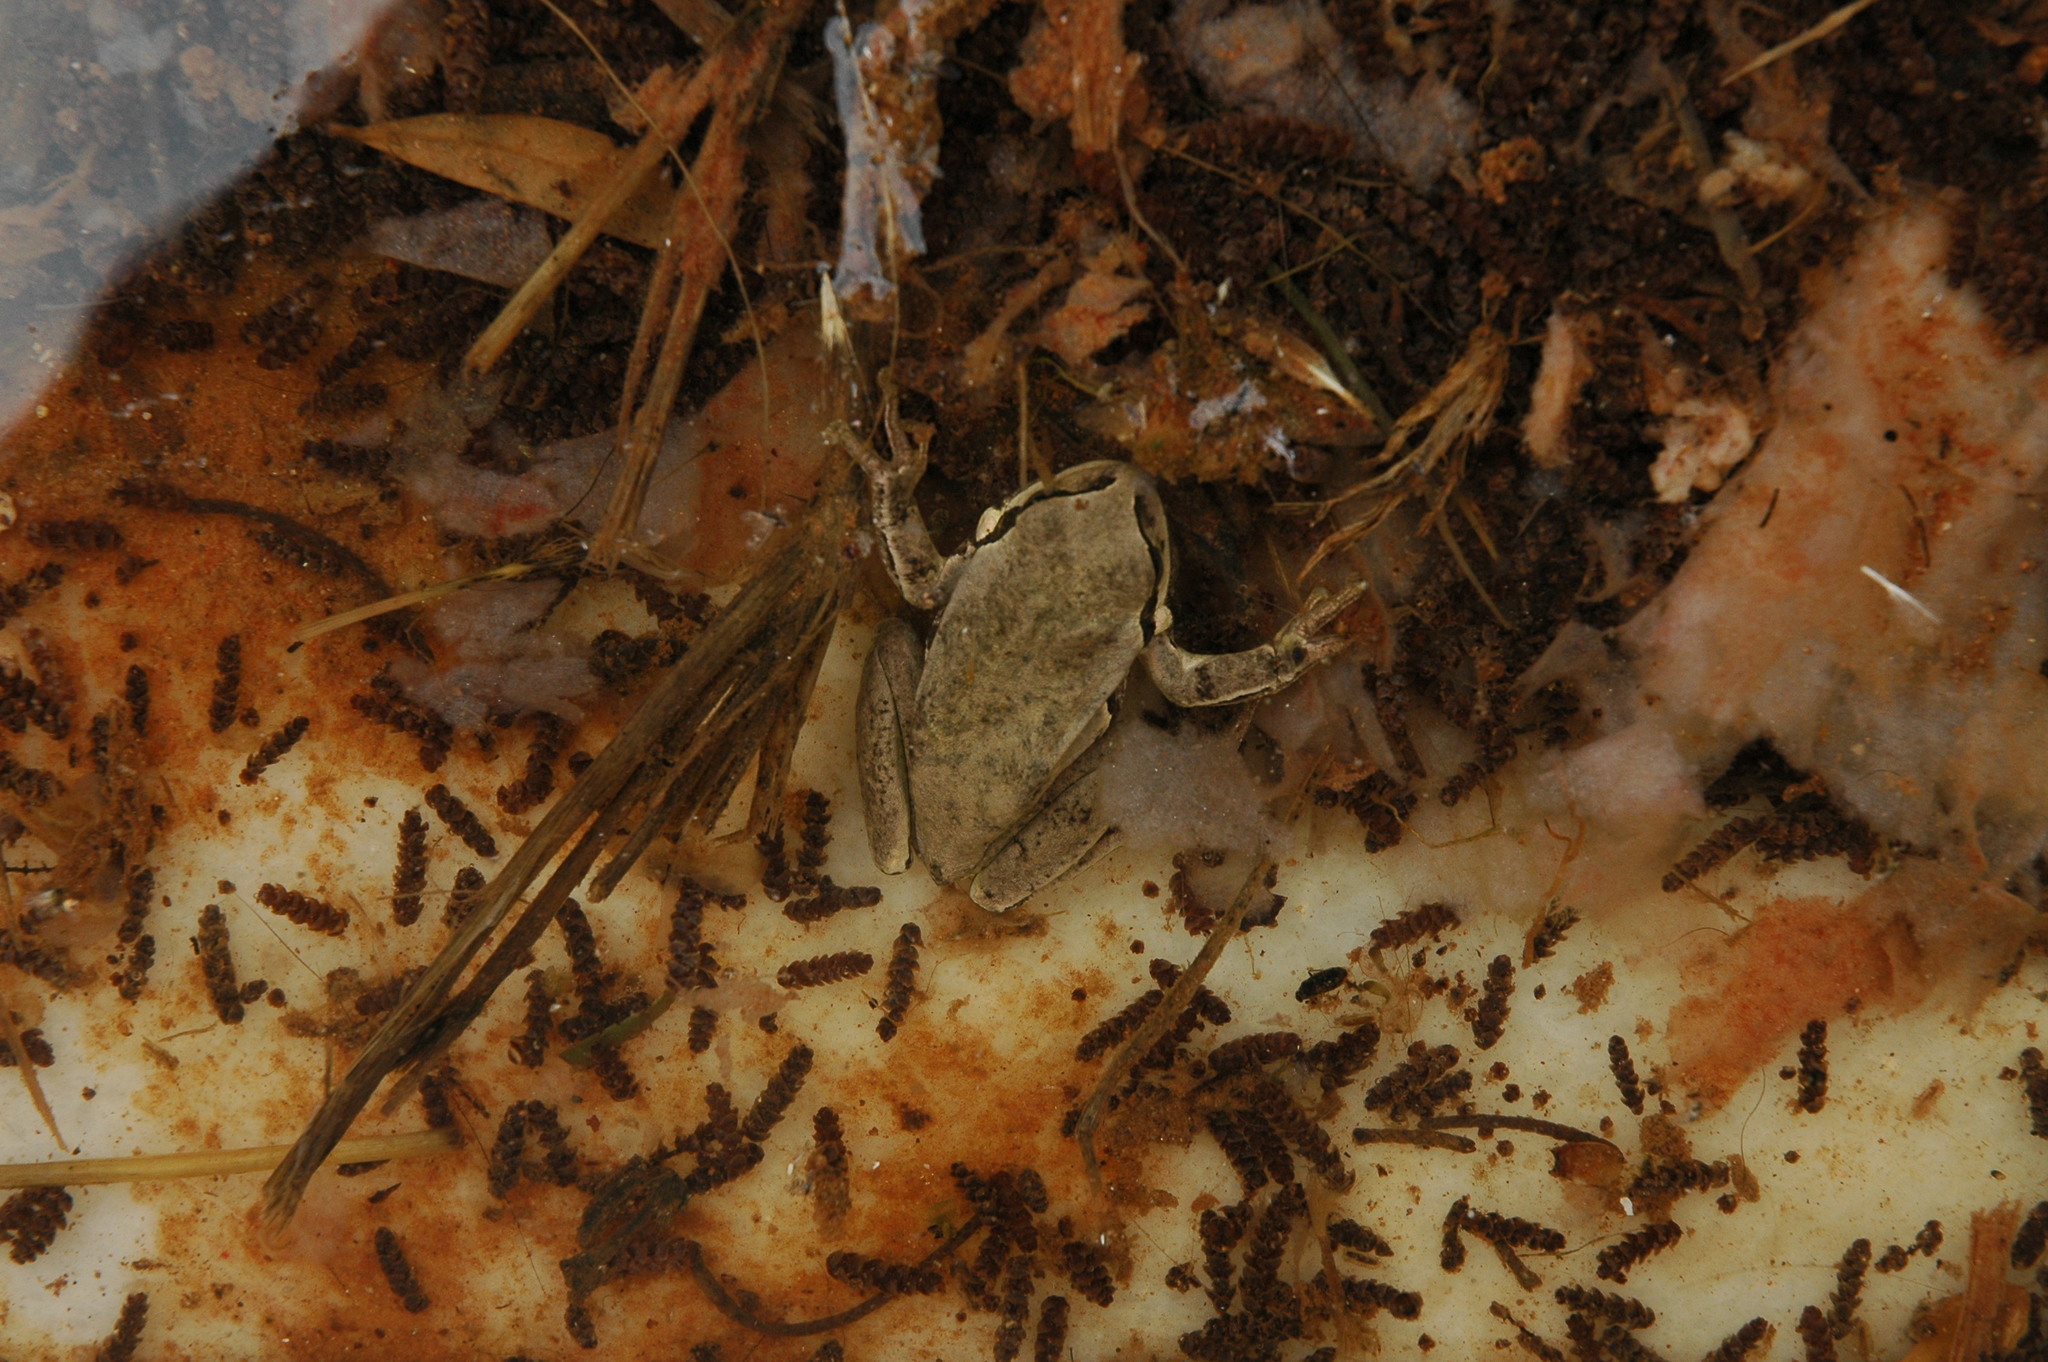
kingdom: Animalia
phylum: Chordata
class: Amphibia
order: Anura
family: Hylidae
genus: Hyla
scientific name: Hyla savignyi
